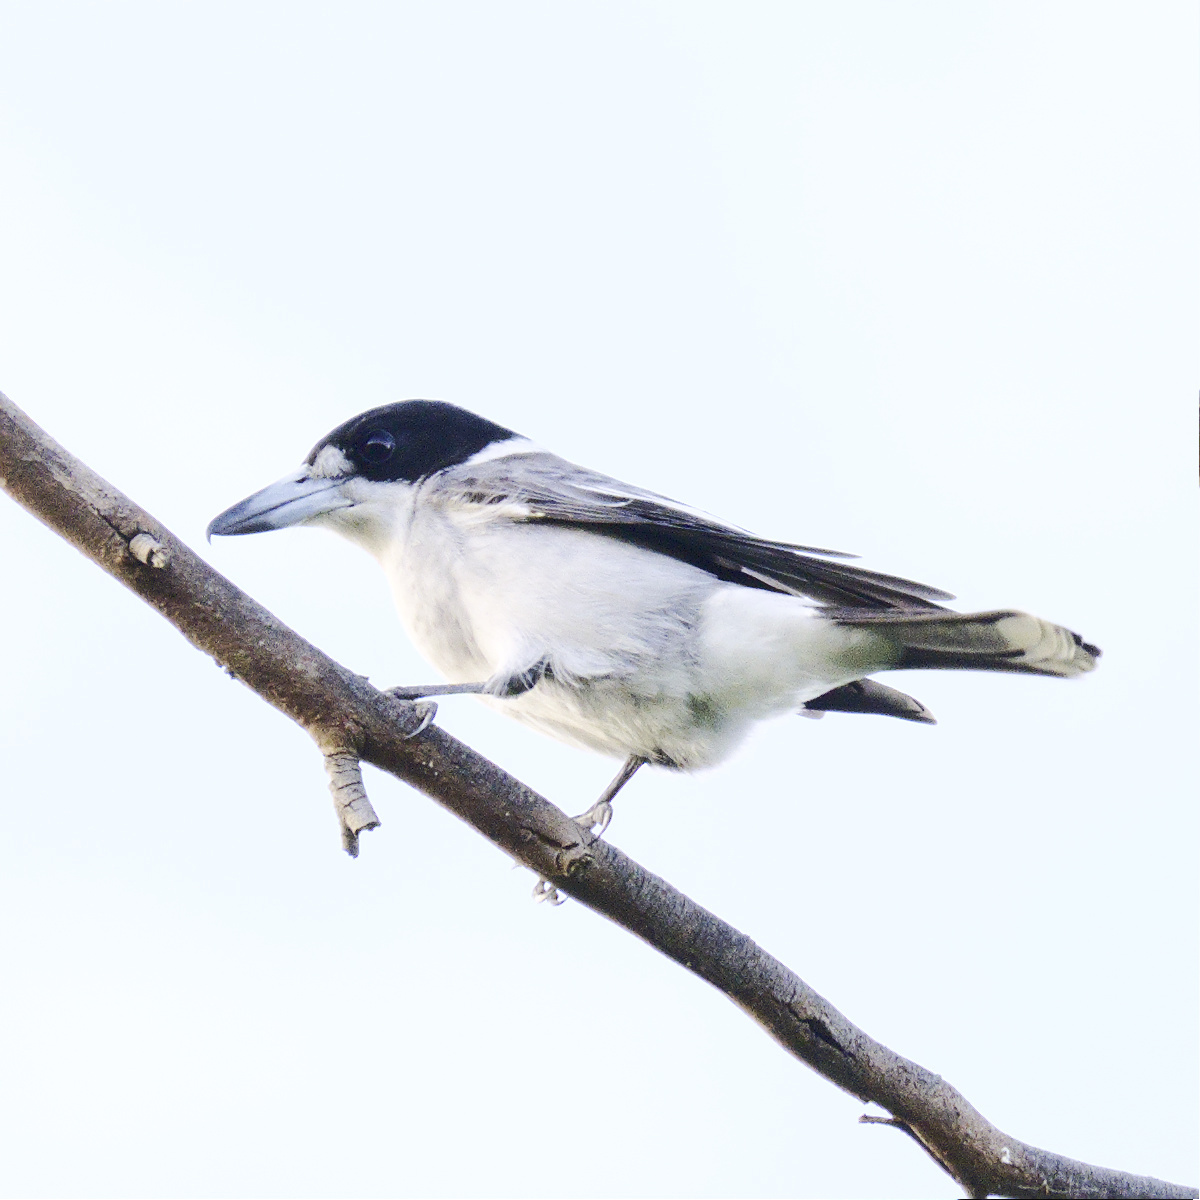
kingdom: Animalia
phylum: Chordata
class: Aves
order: Passeriformes
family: Cracticidae
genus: Cracticus
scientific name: Cracticus torquatus
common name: Grey butcherbird
